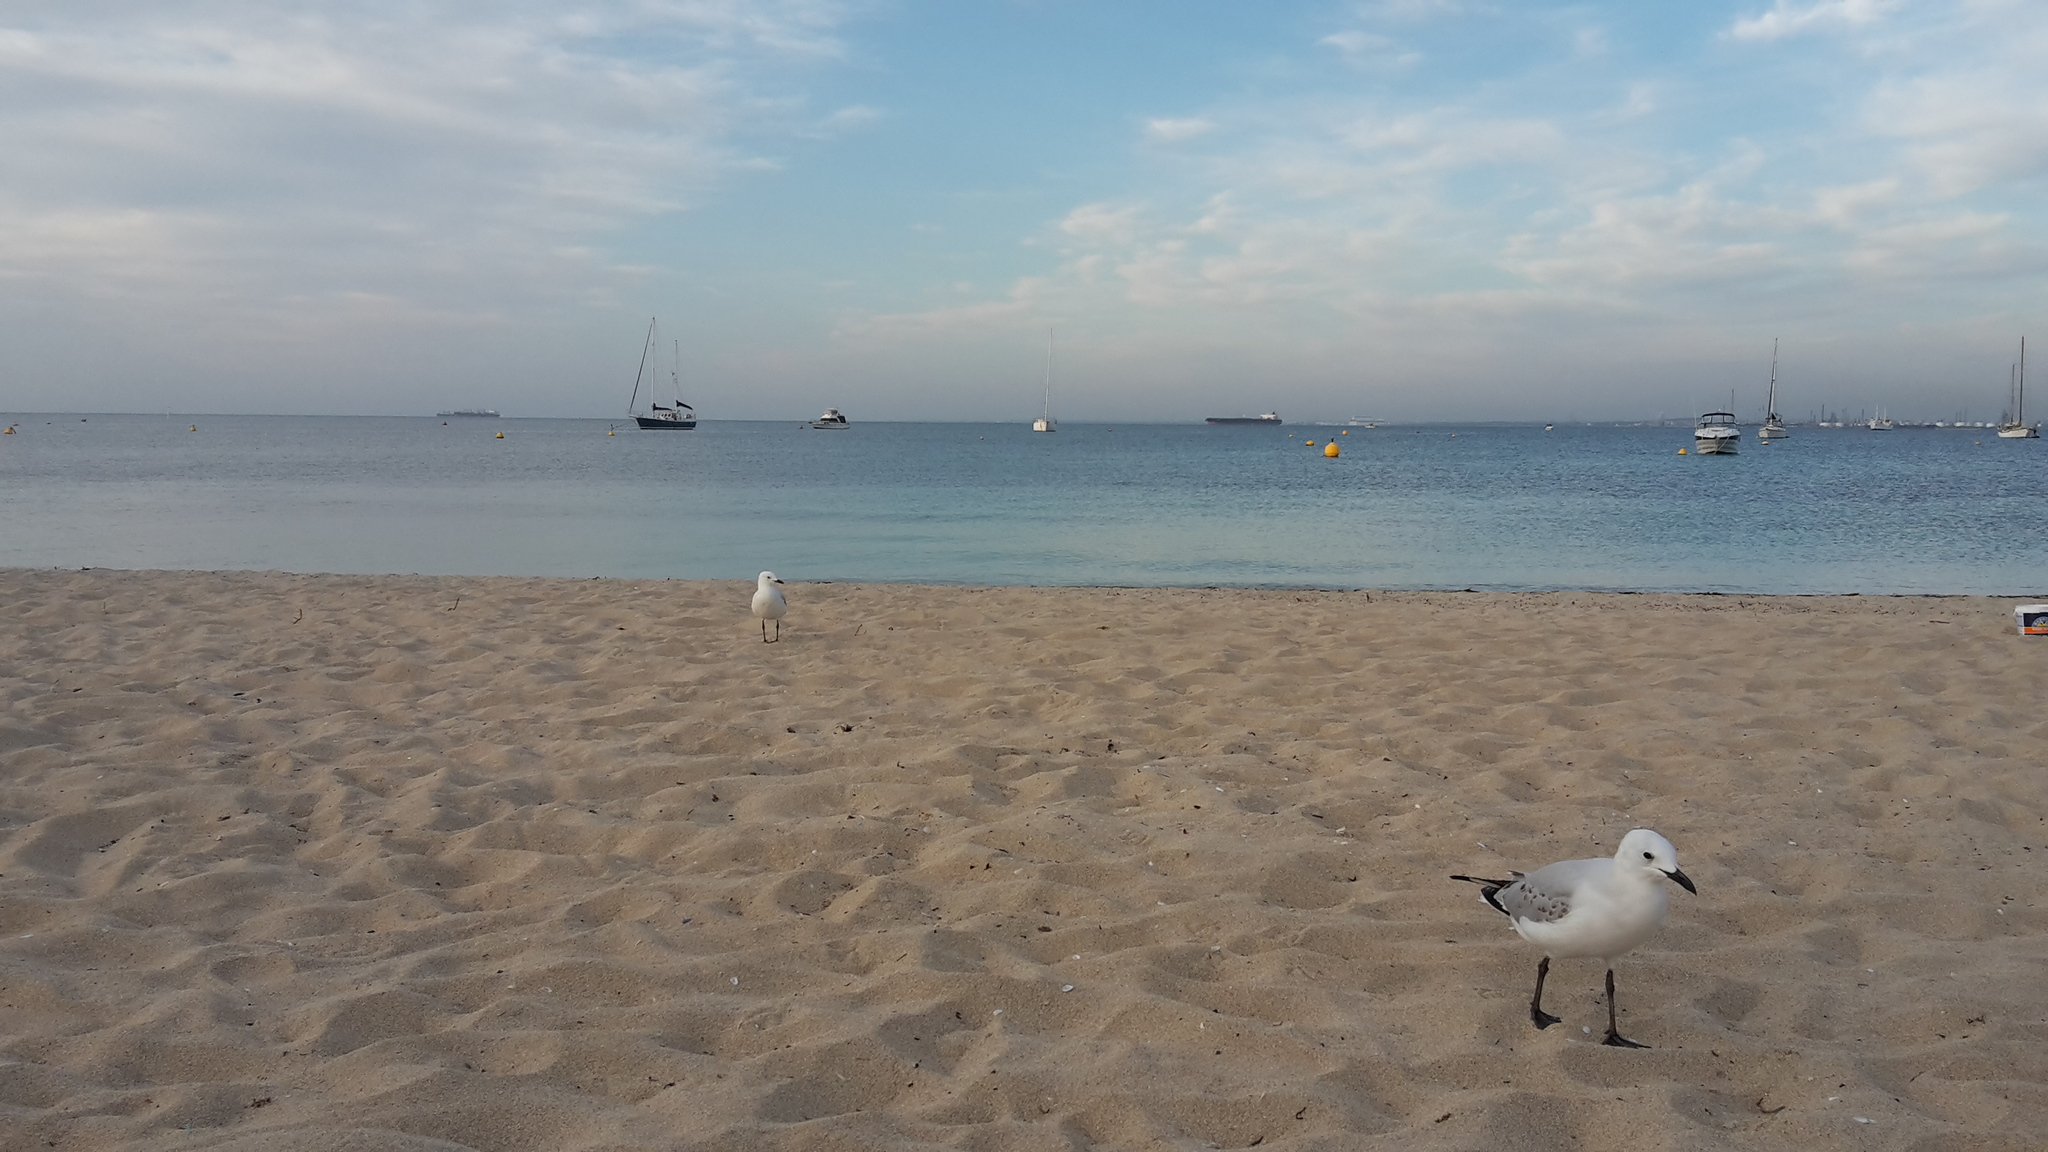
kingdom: Animalia
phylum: Chordata
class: Aves
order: Charadriiformes
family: Laridae
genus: Chroicocephalus
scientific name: Chroicocephalus novaehollandiae
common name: Silver gull
